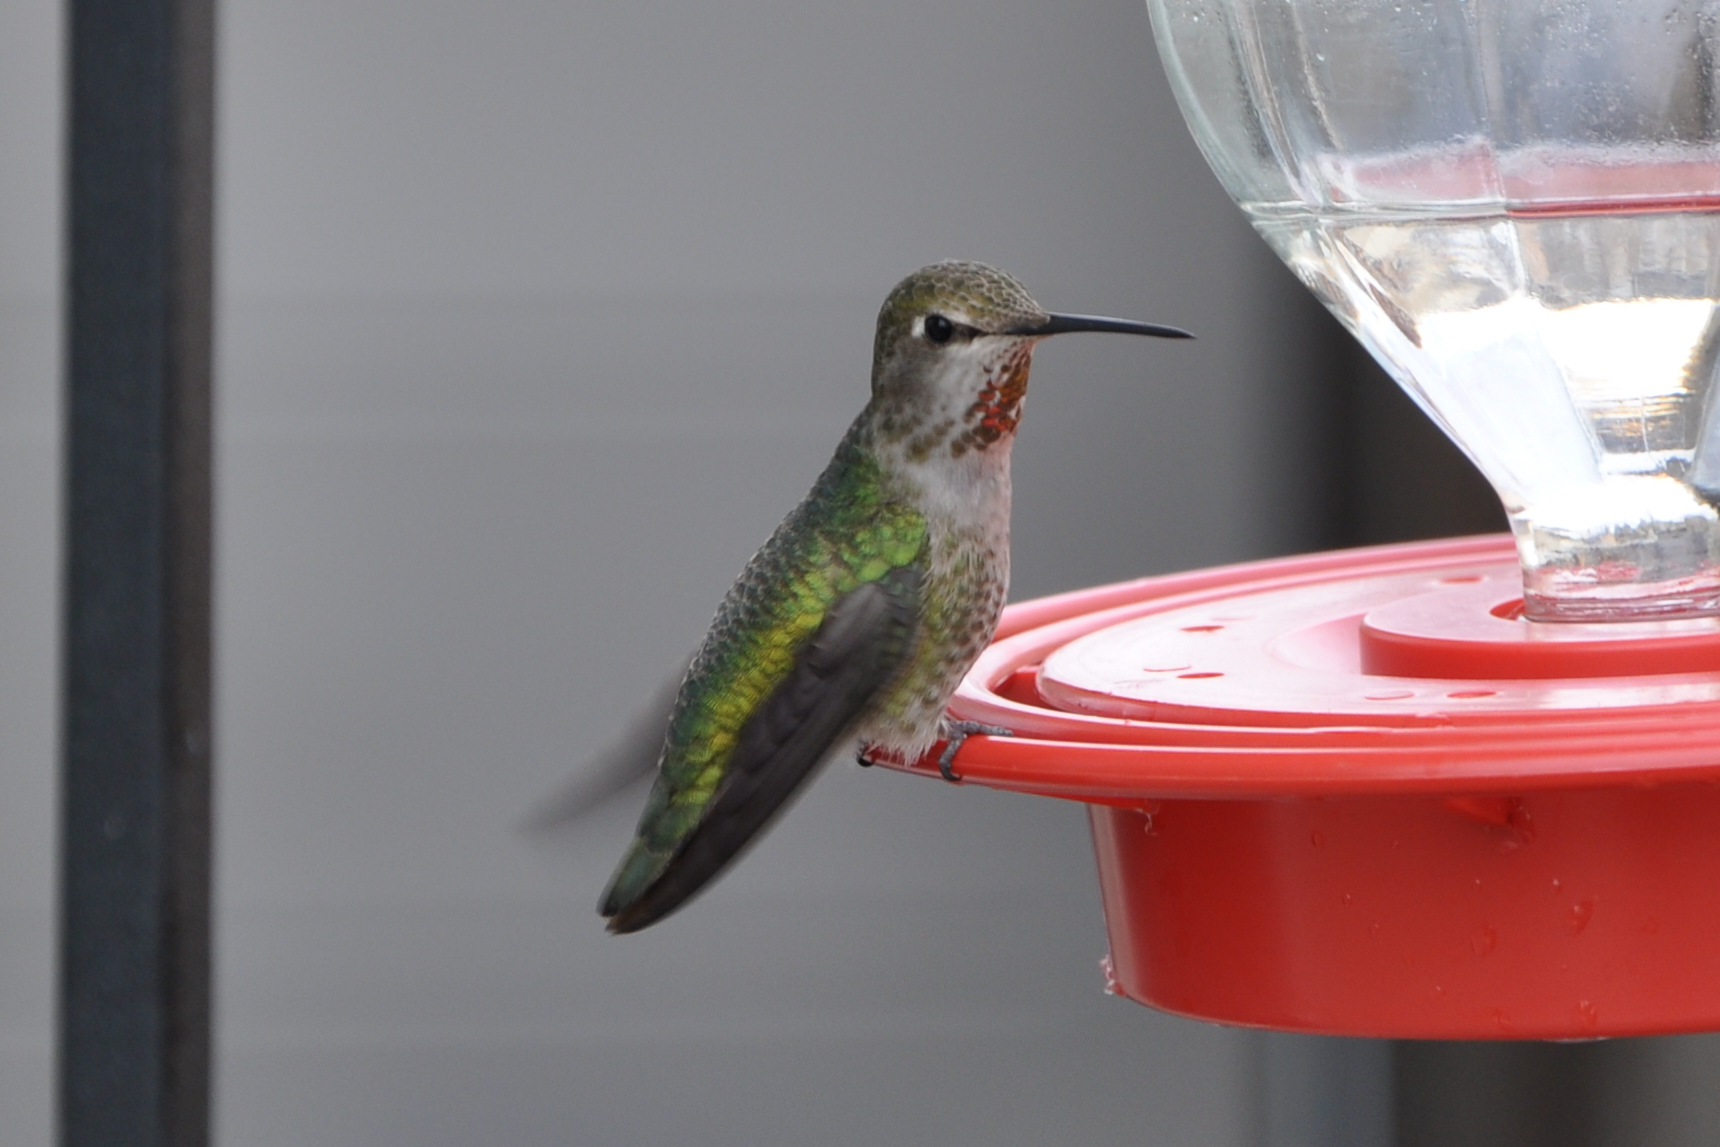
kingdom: Animalia
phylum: Chordata
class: Aves
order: Apodiformes
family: Trochilidae
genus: Calypte
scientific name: Calypte anna
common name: Anna's hummingbird
